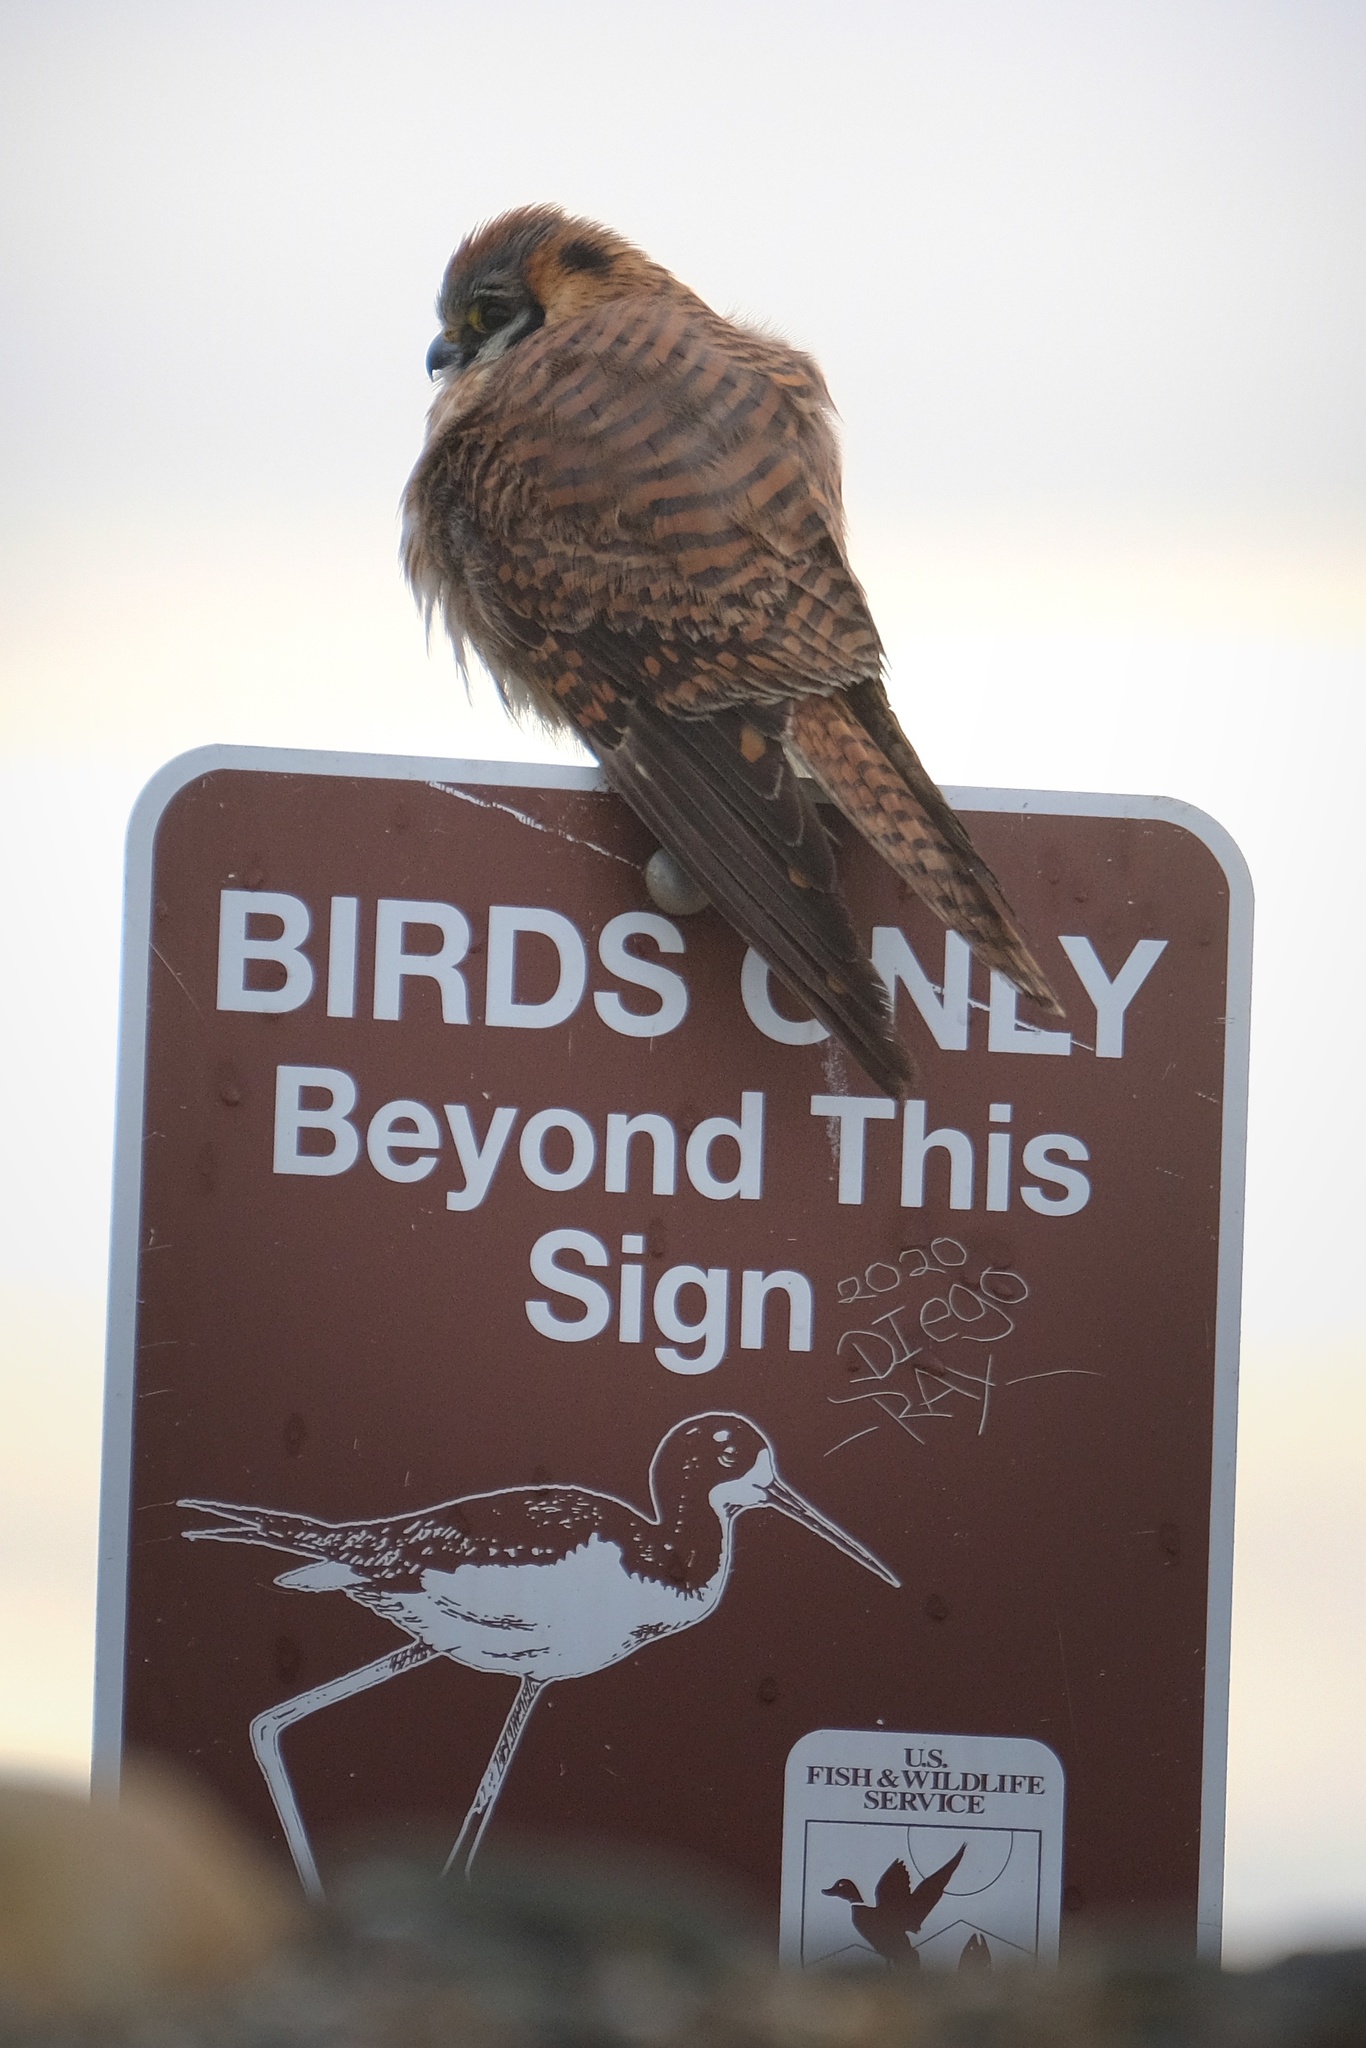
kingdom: Animalia
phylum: Chordata
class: Aves
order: Falconiformes
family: Falconidae
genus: Falco
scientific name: Falco sparverius
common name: American kestrel
